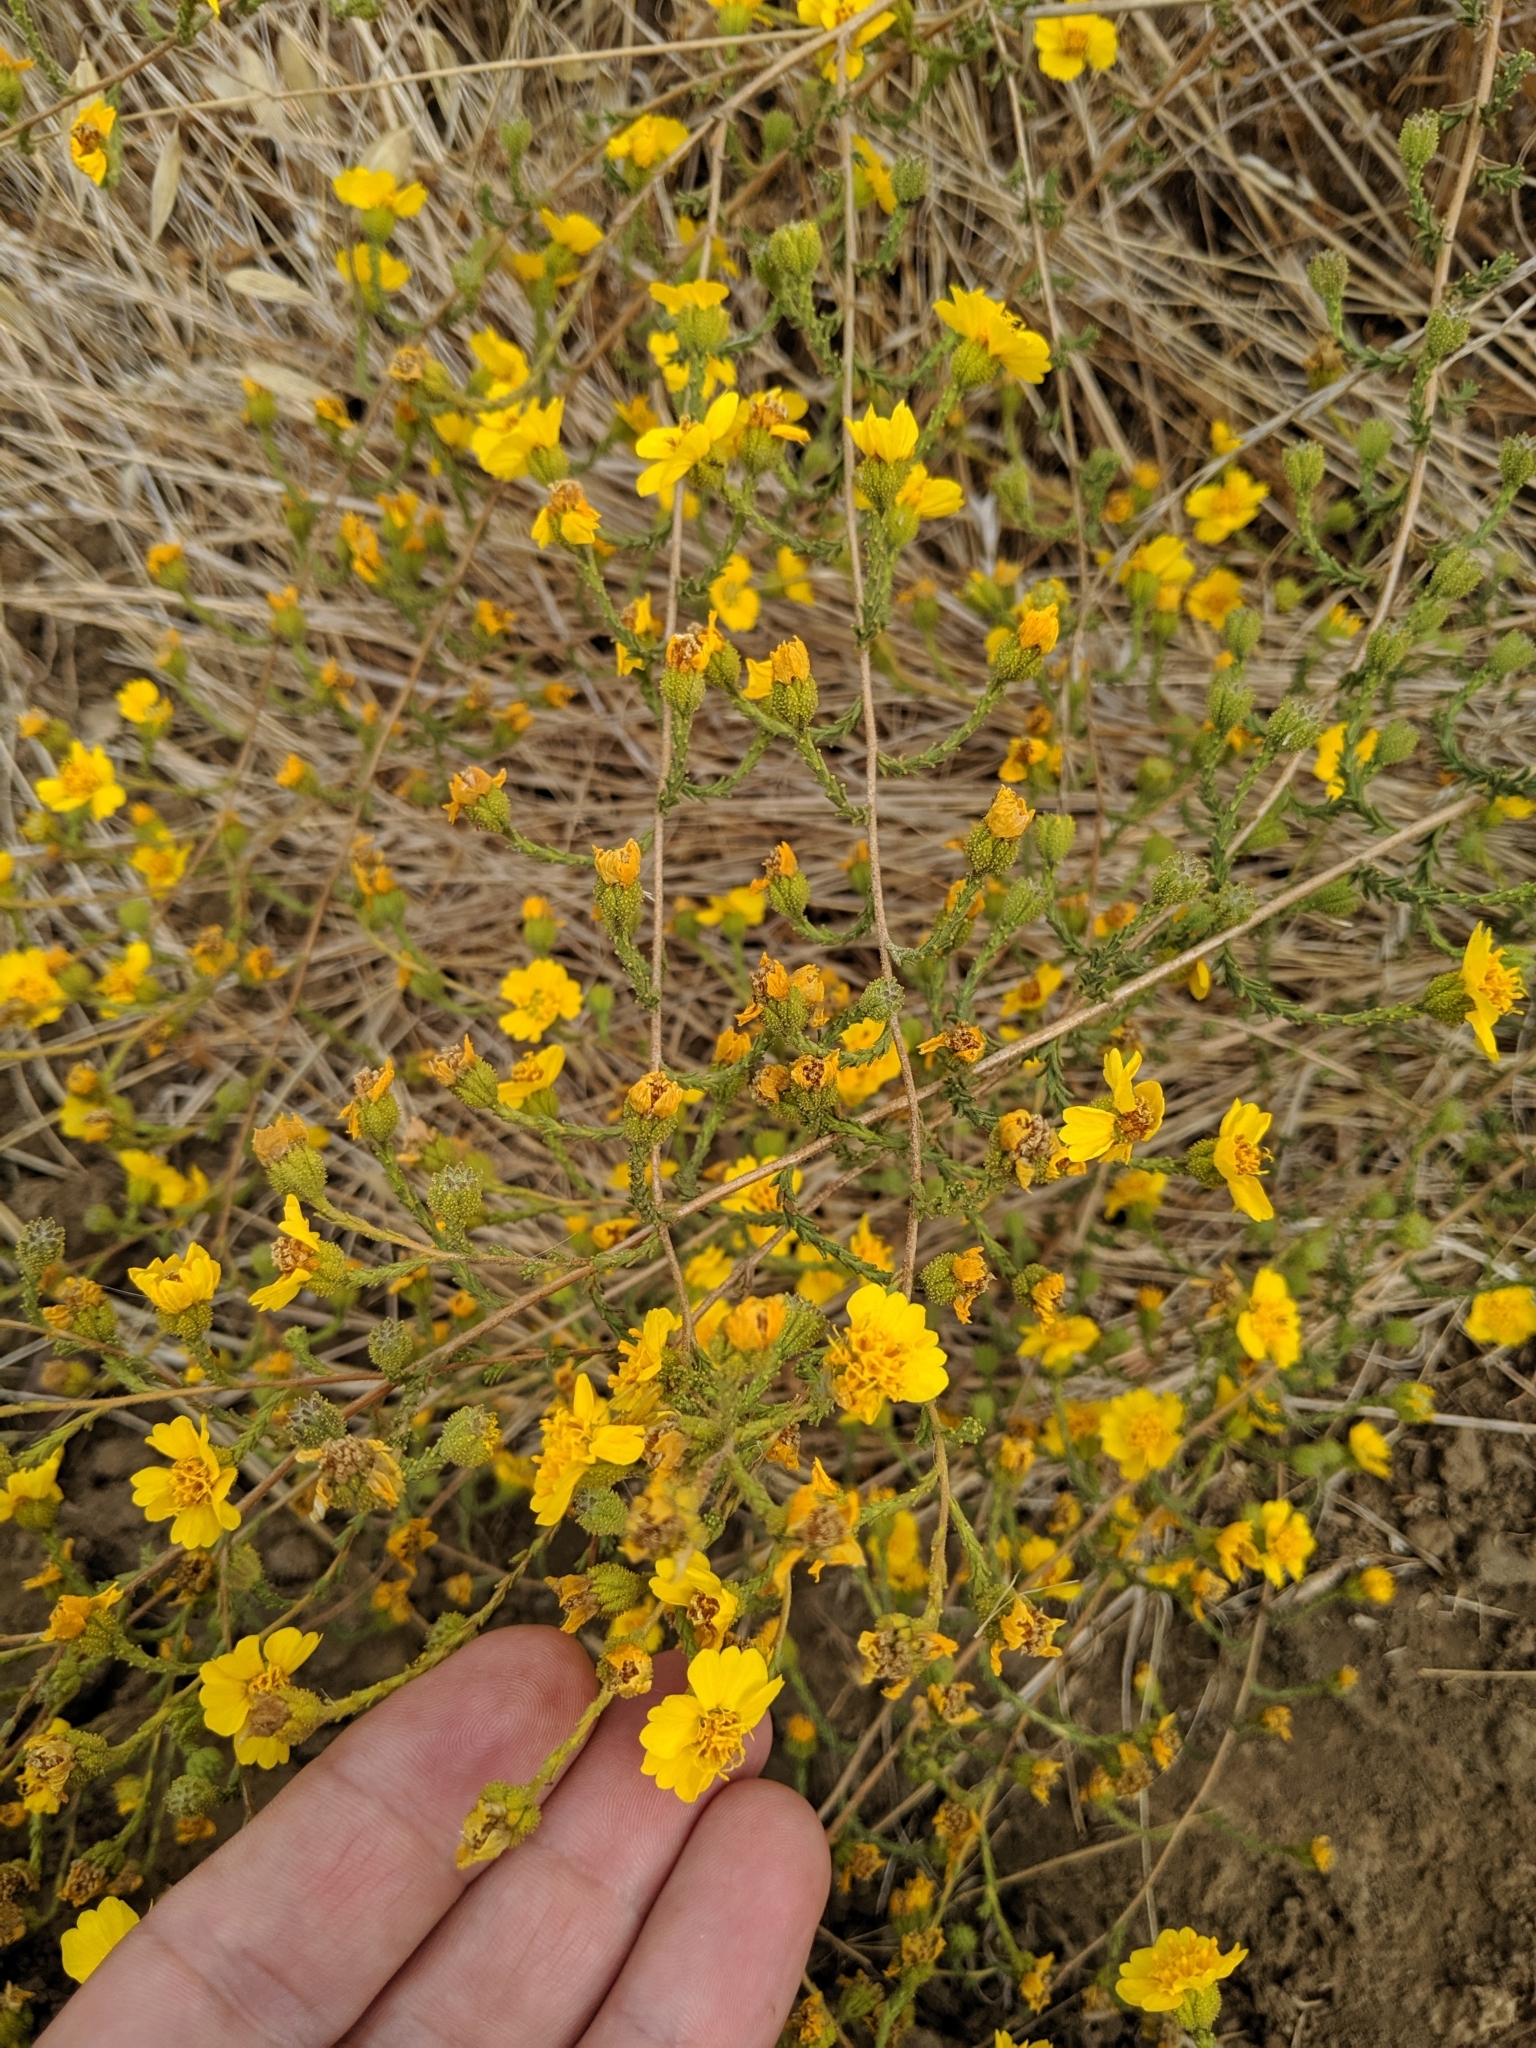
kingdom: Plantae
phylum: Tracheophyta
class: Magnoliopsida
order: Asterales
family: Asteraceae
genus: Holocarpha
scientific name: Holocarpha heermannii
